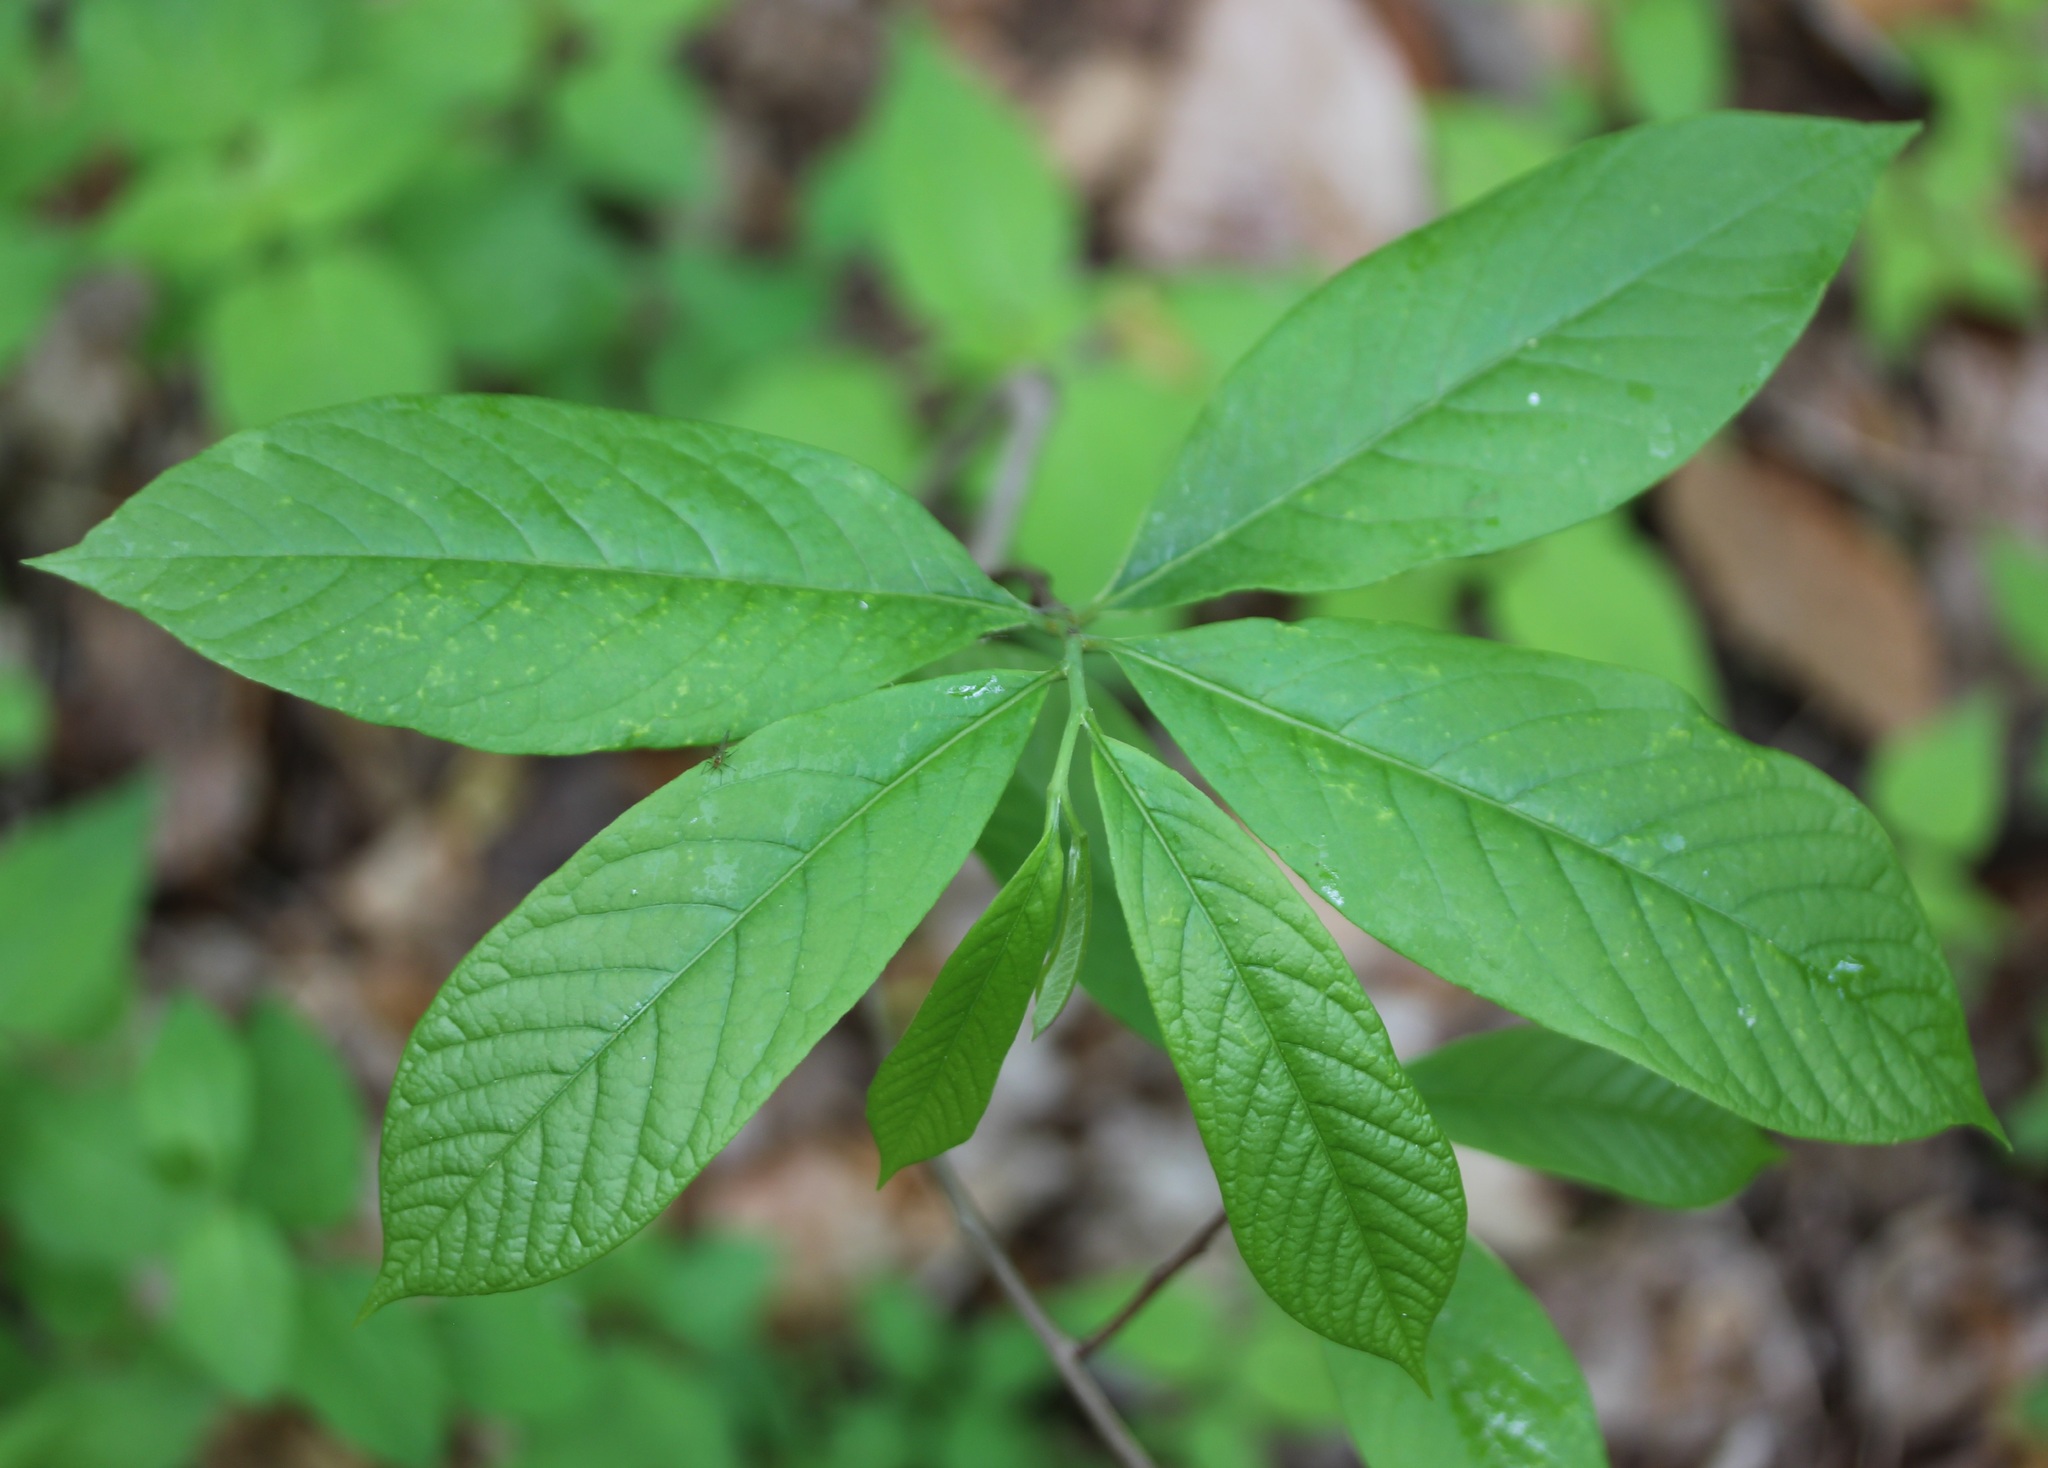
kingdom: Plantae
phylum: Tracheophyta
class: Magnoliopsida
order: Magnoliales
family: Annonaceae
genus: Asimina
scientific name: Asimina triloba
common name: Dog-banana
